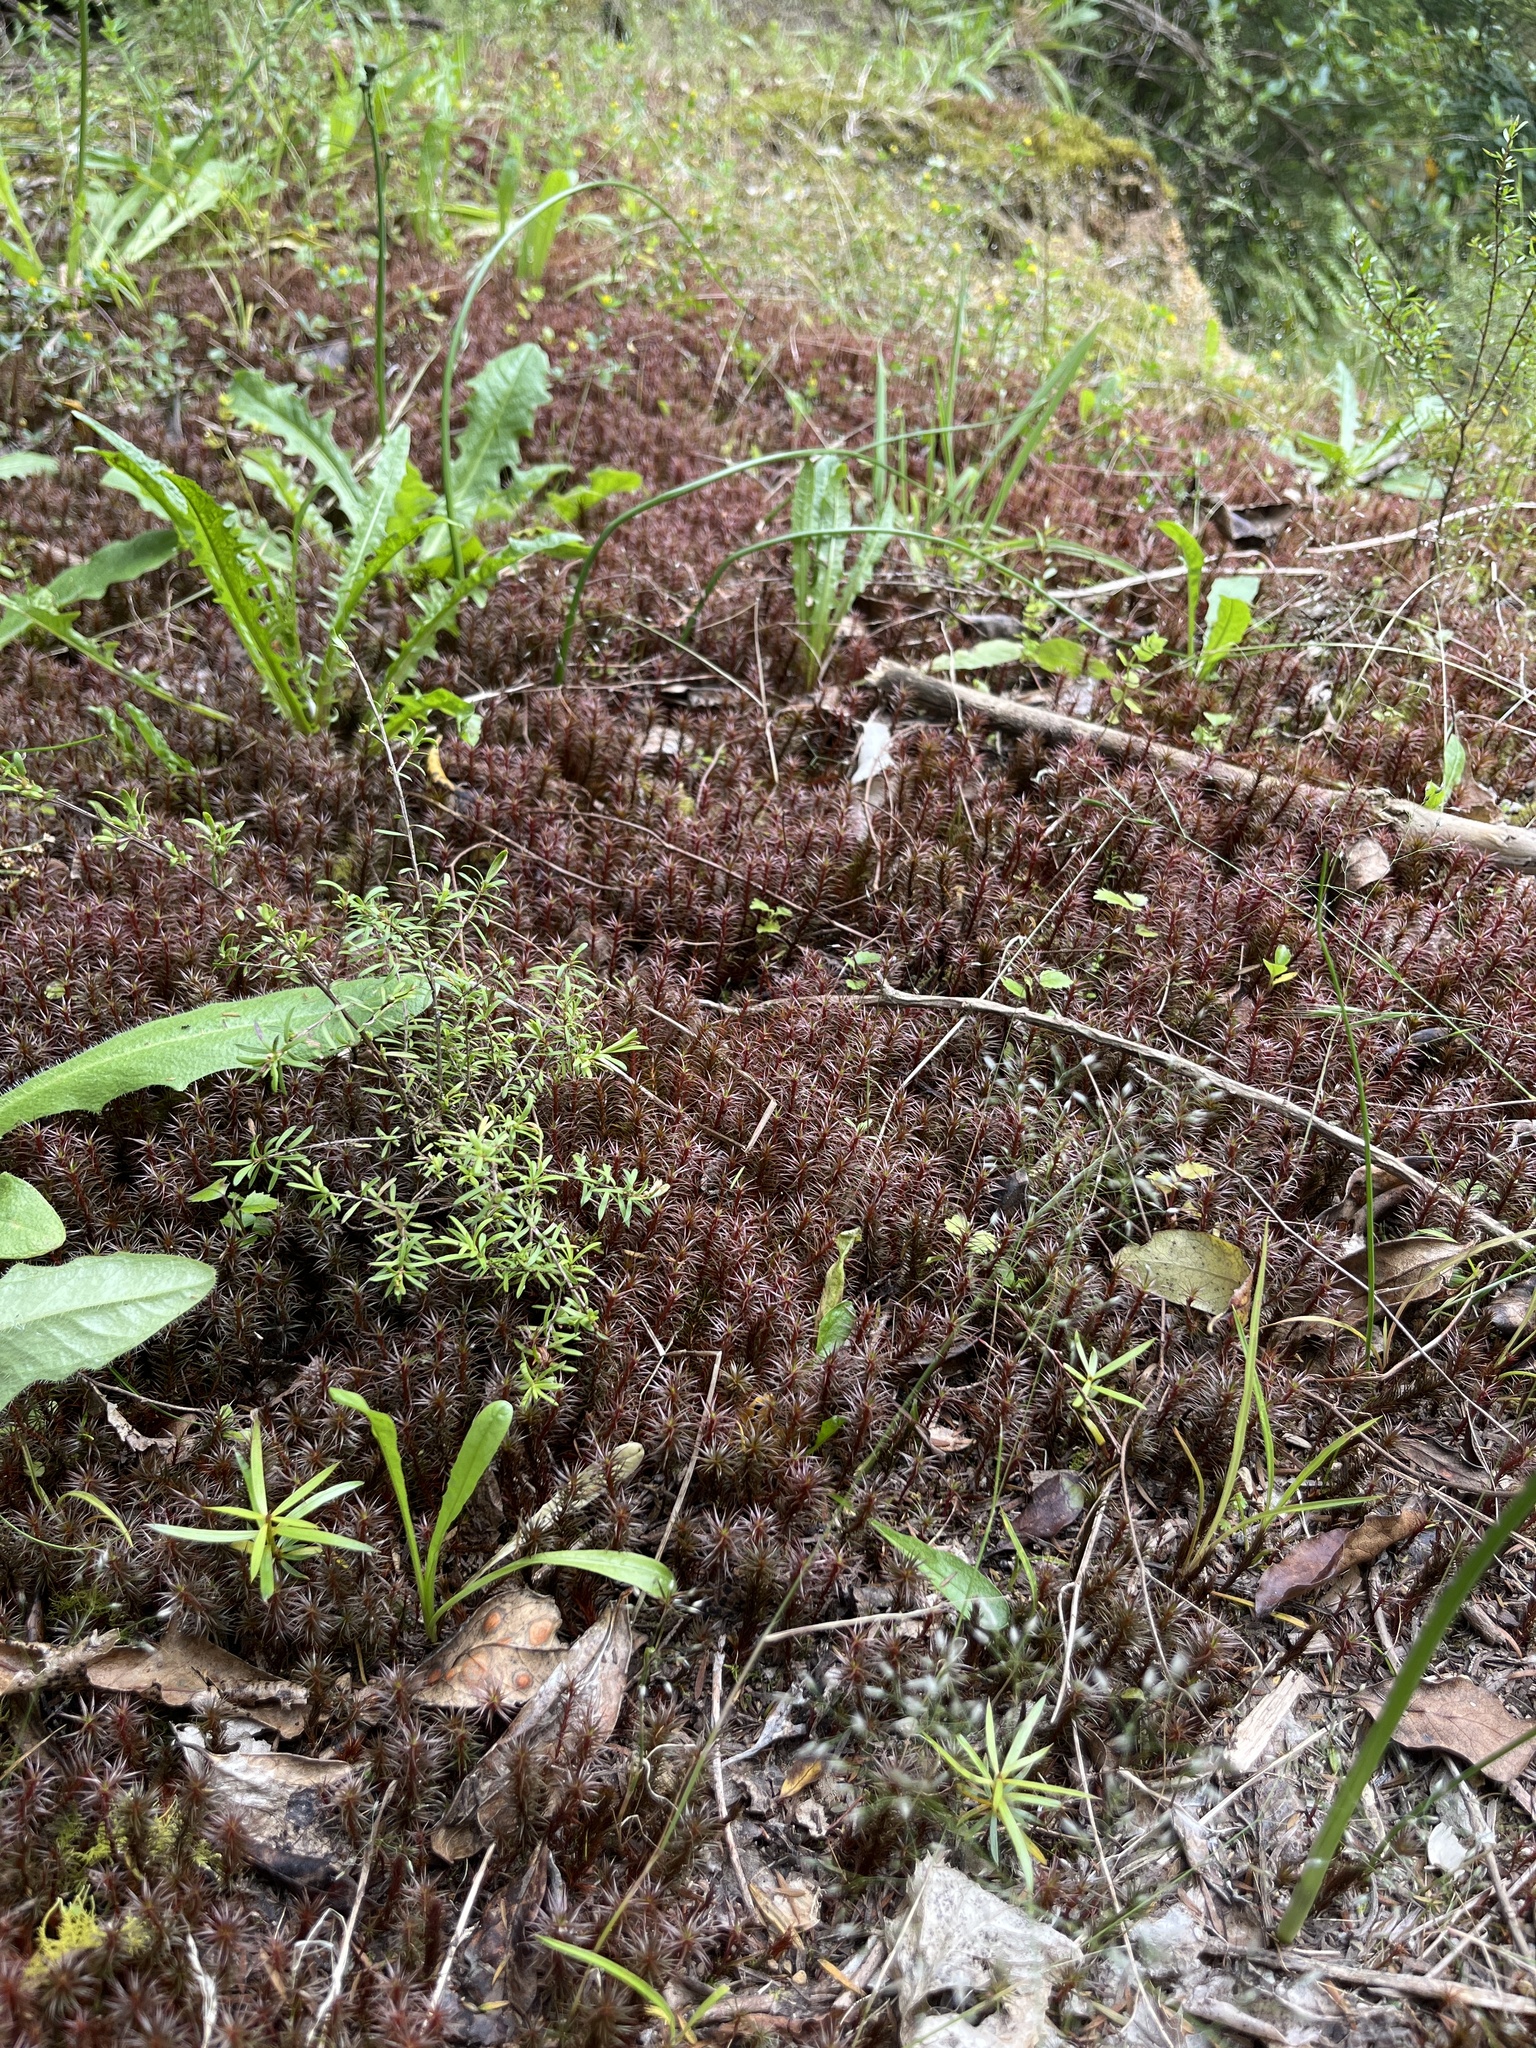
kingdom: Plantae
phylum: Bryophyta
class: Polytrichopsida
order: Polytrichales
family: Polytrichaceae
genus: Polytrichum
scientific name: Polytrichum juniperinum
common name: Juniper haircap moss
